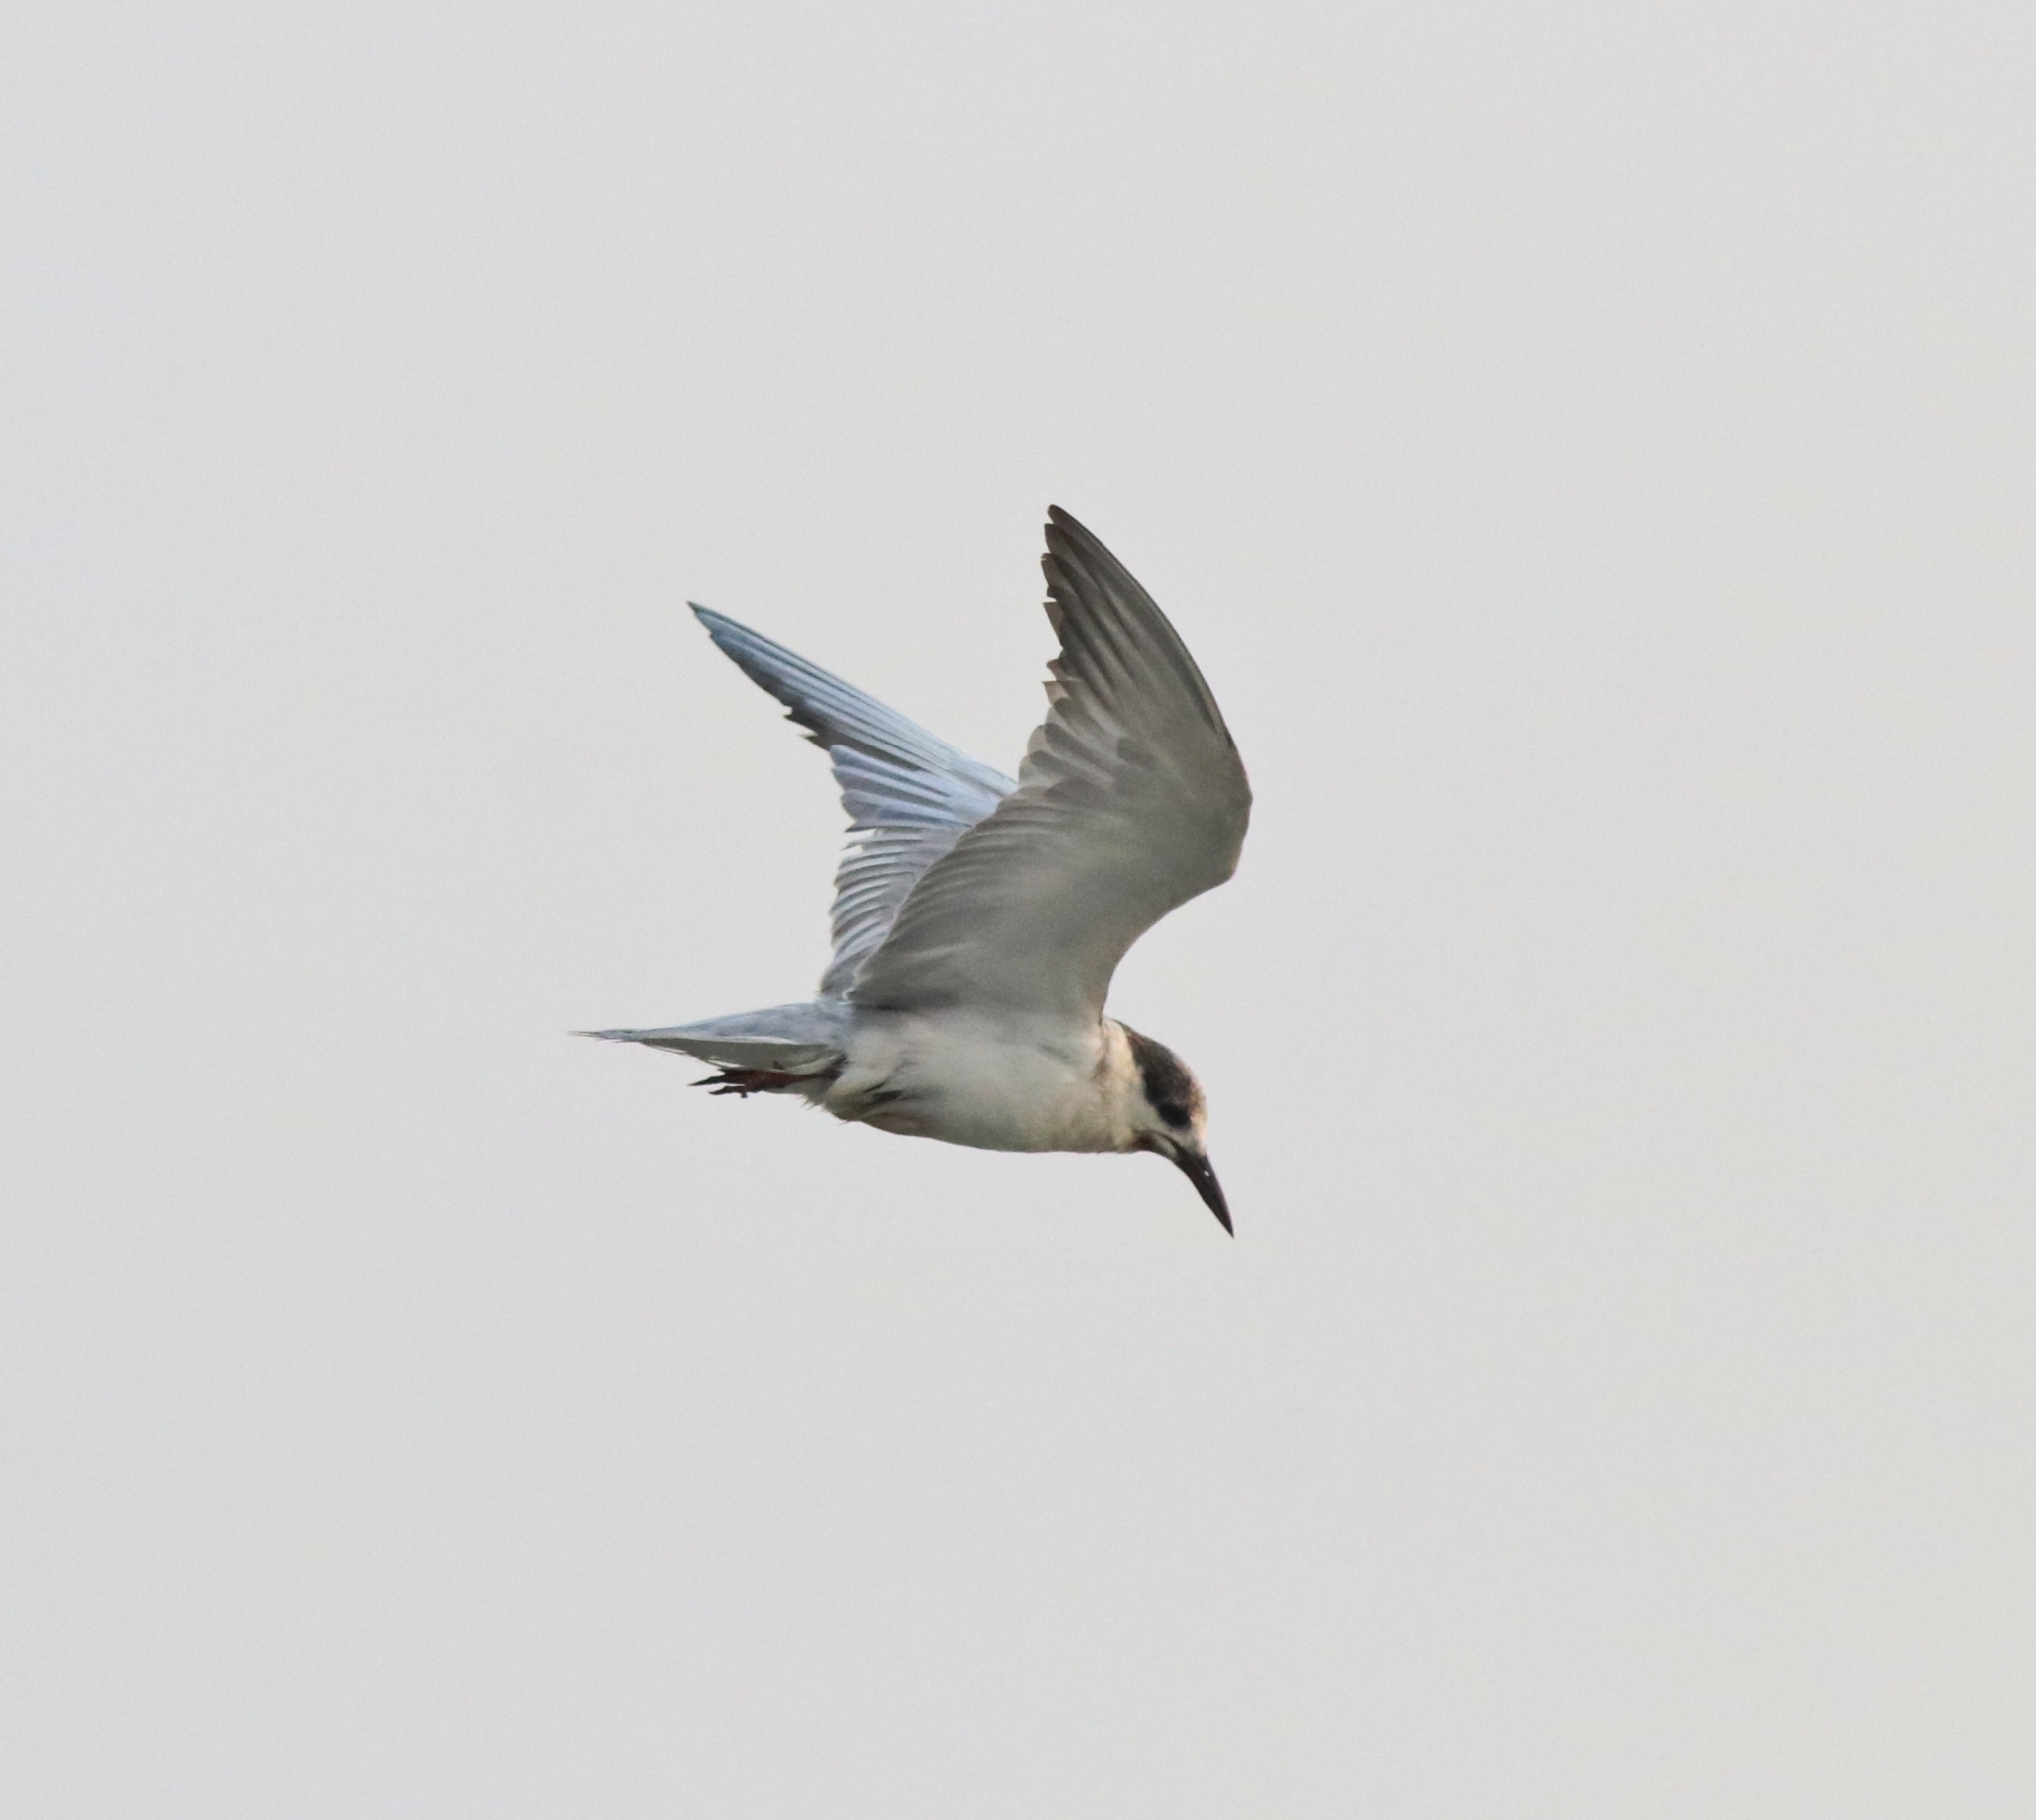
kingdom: Animalia
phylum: Chordata
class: Aves
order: Charadriiformes
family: Laridae
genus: Chlidonias
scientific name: Chlidonias hybrida
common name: Whiskered tern
